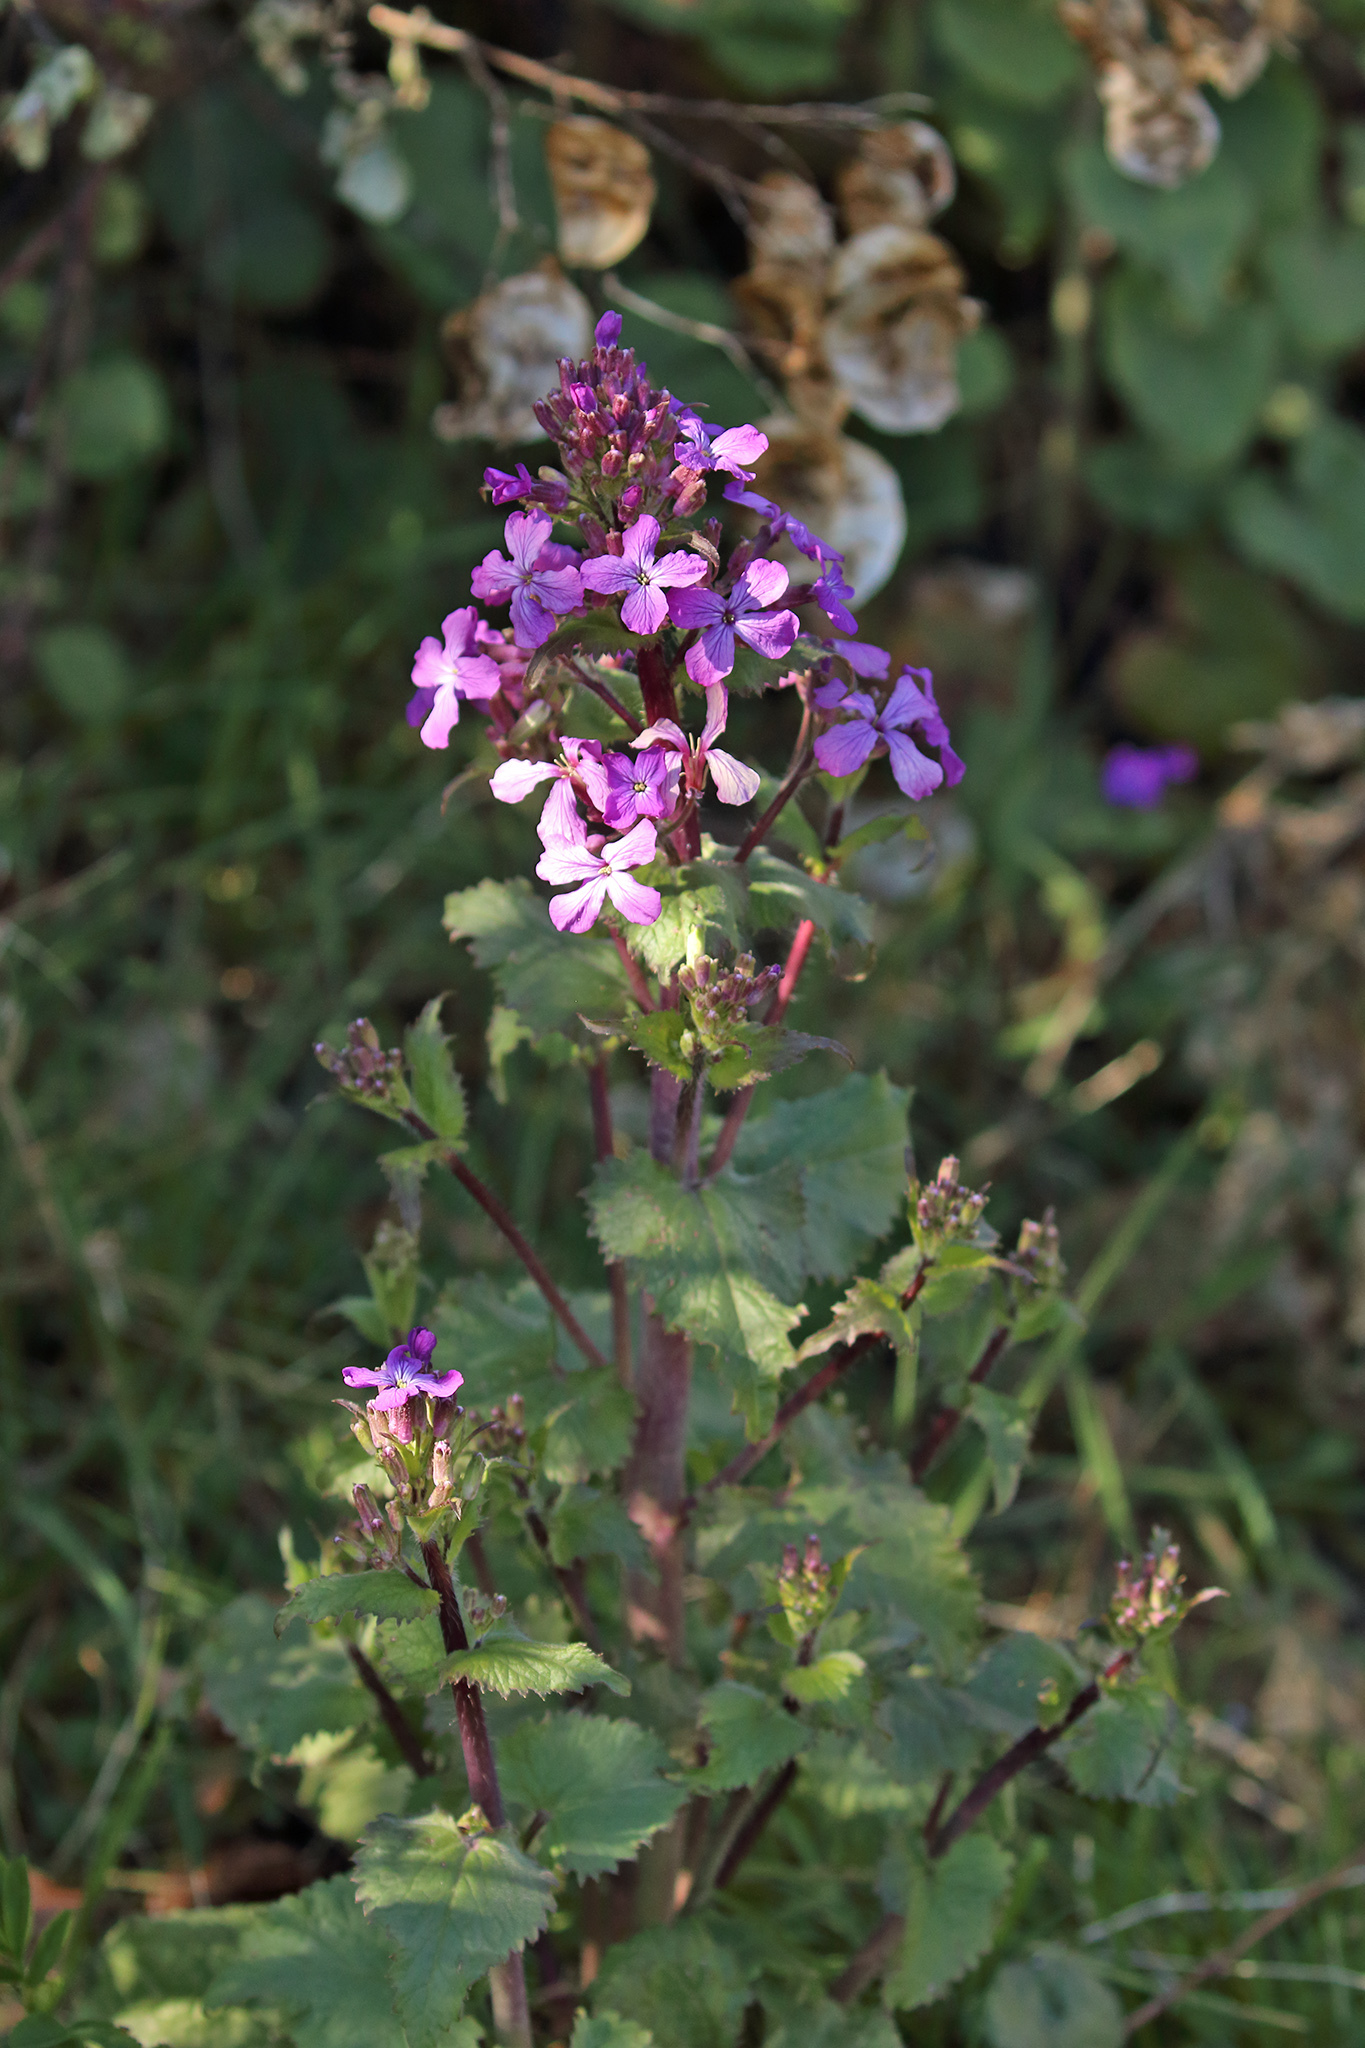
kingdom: Plantae
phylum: Tracheophyta
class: Magnoliopsida
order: Brassicales
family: Brassicaceae
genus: Lunaria
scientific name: Lunaria annua
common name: Honesty
